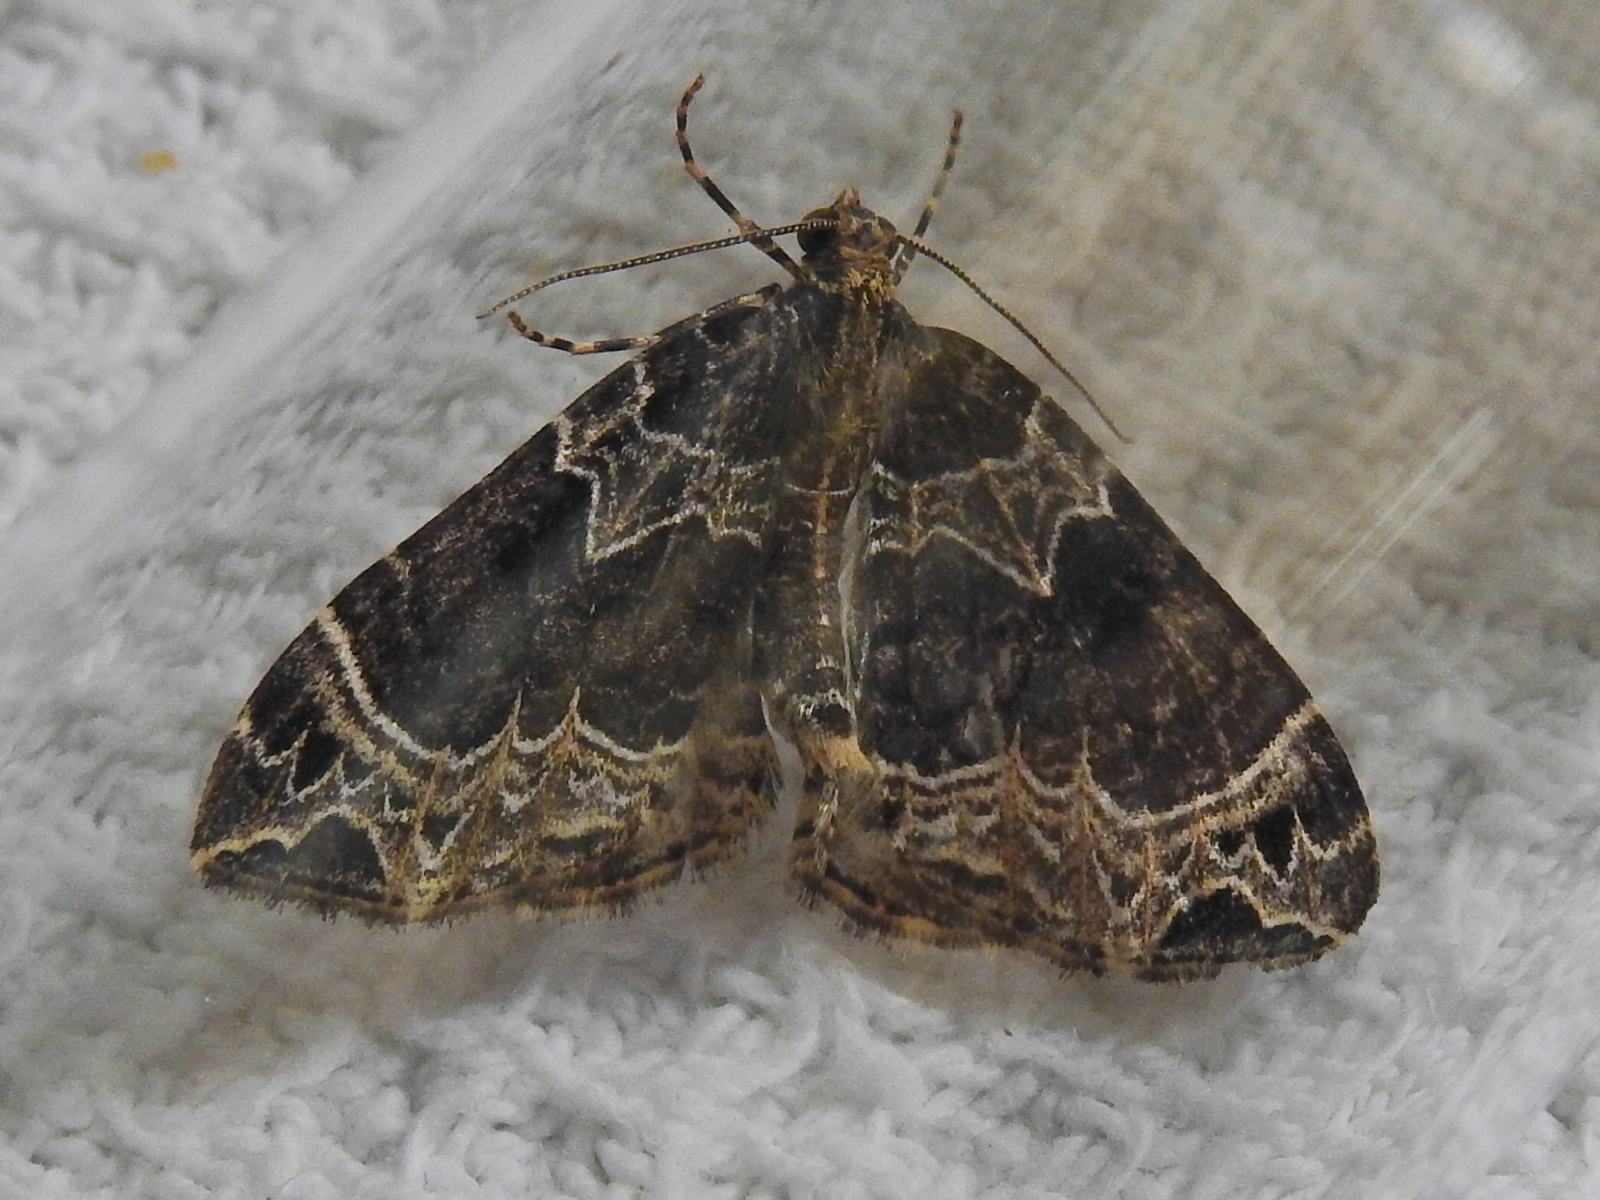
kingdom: Animalia
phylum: Arthropoda
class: Insecta
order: Lepidoptera
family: Geometridae
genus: Ecliptopera
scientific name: Ecliptopera silaceata
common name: Small phoenix
